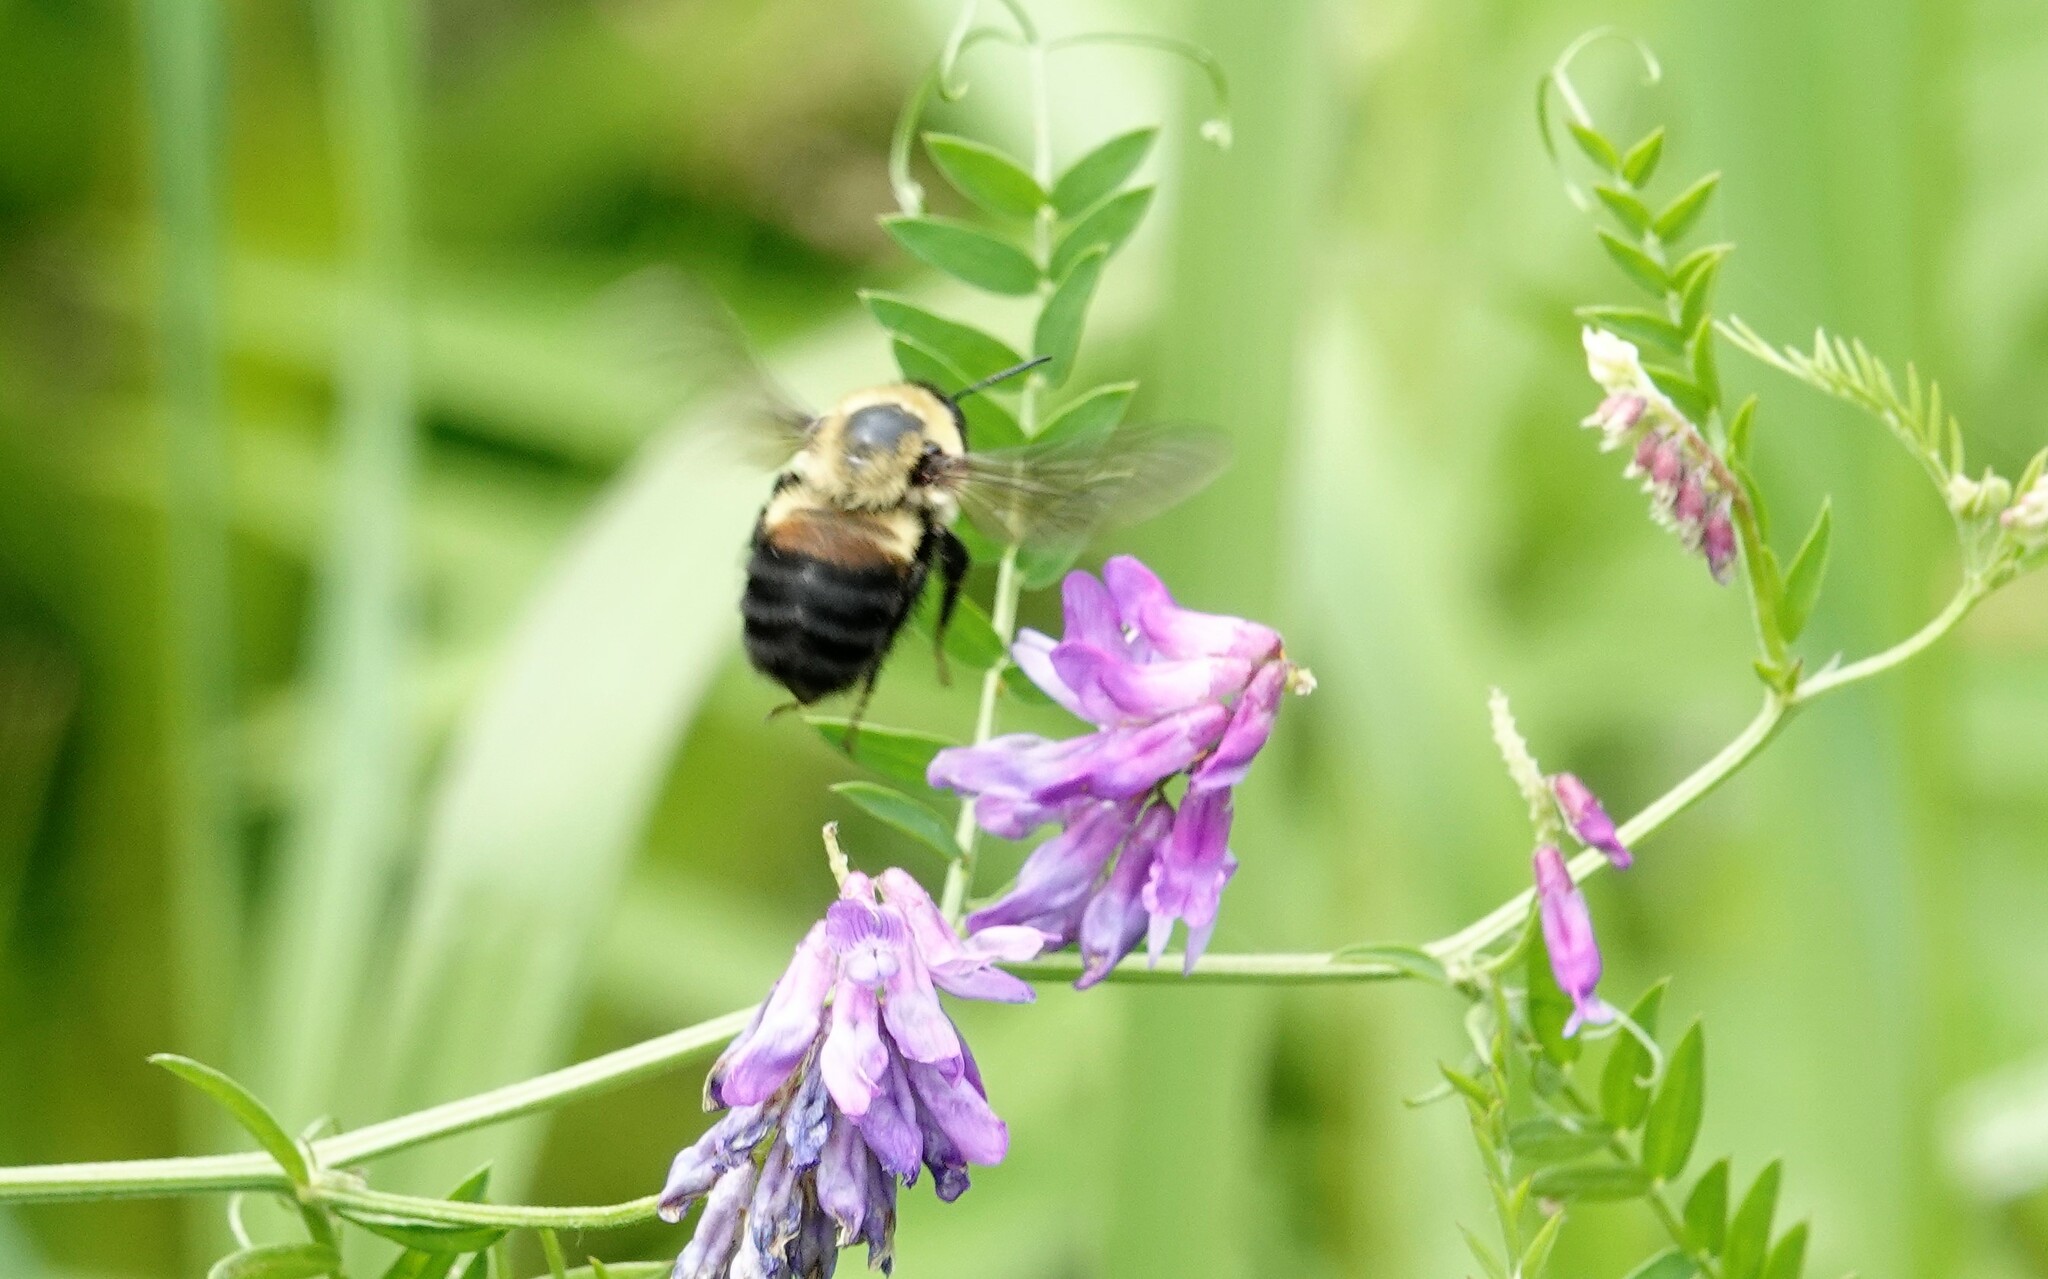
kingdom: Animalia
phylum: Arthropoda
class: Insecta
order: Hymenoptera
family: Apidae
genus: Bombus
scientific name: Bombus griseocollis
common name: Brown-belted bumble bee
